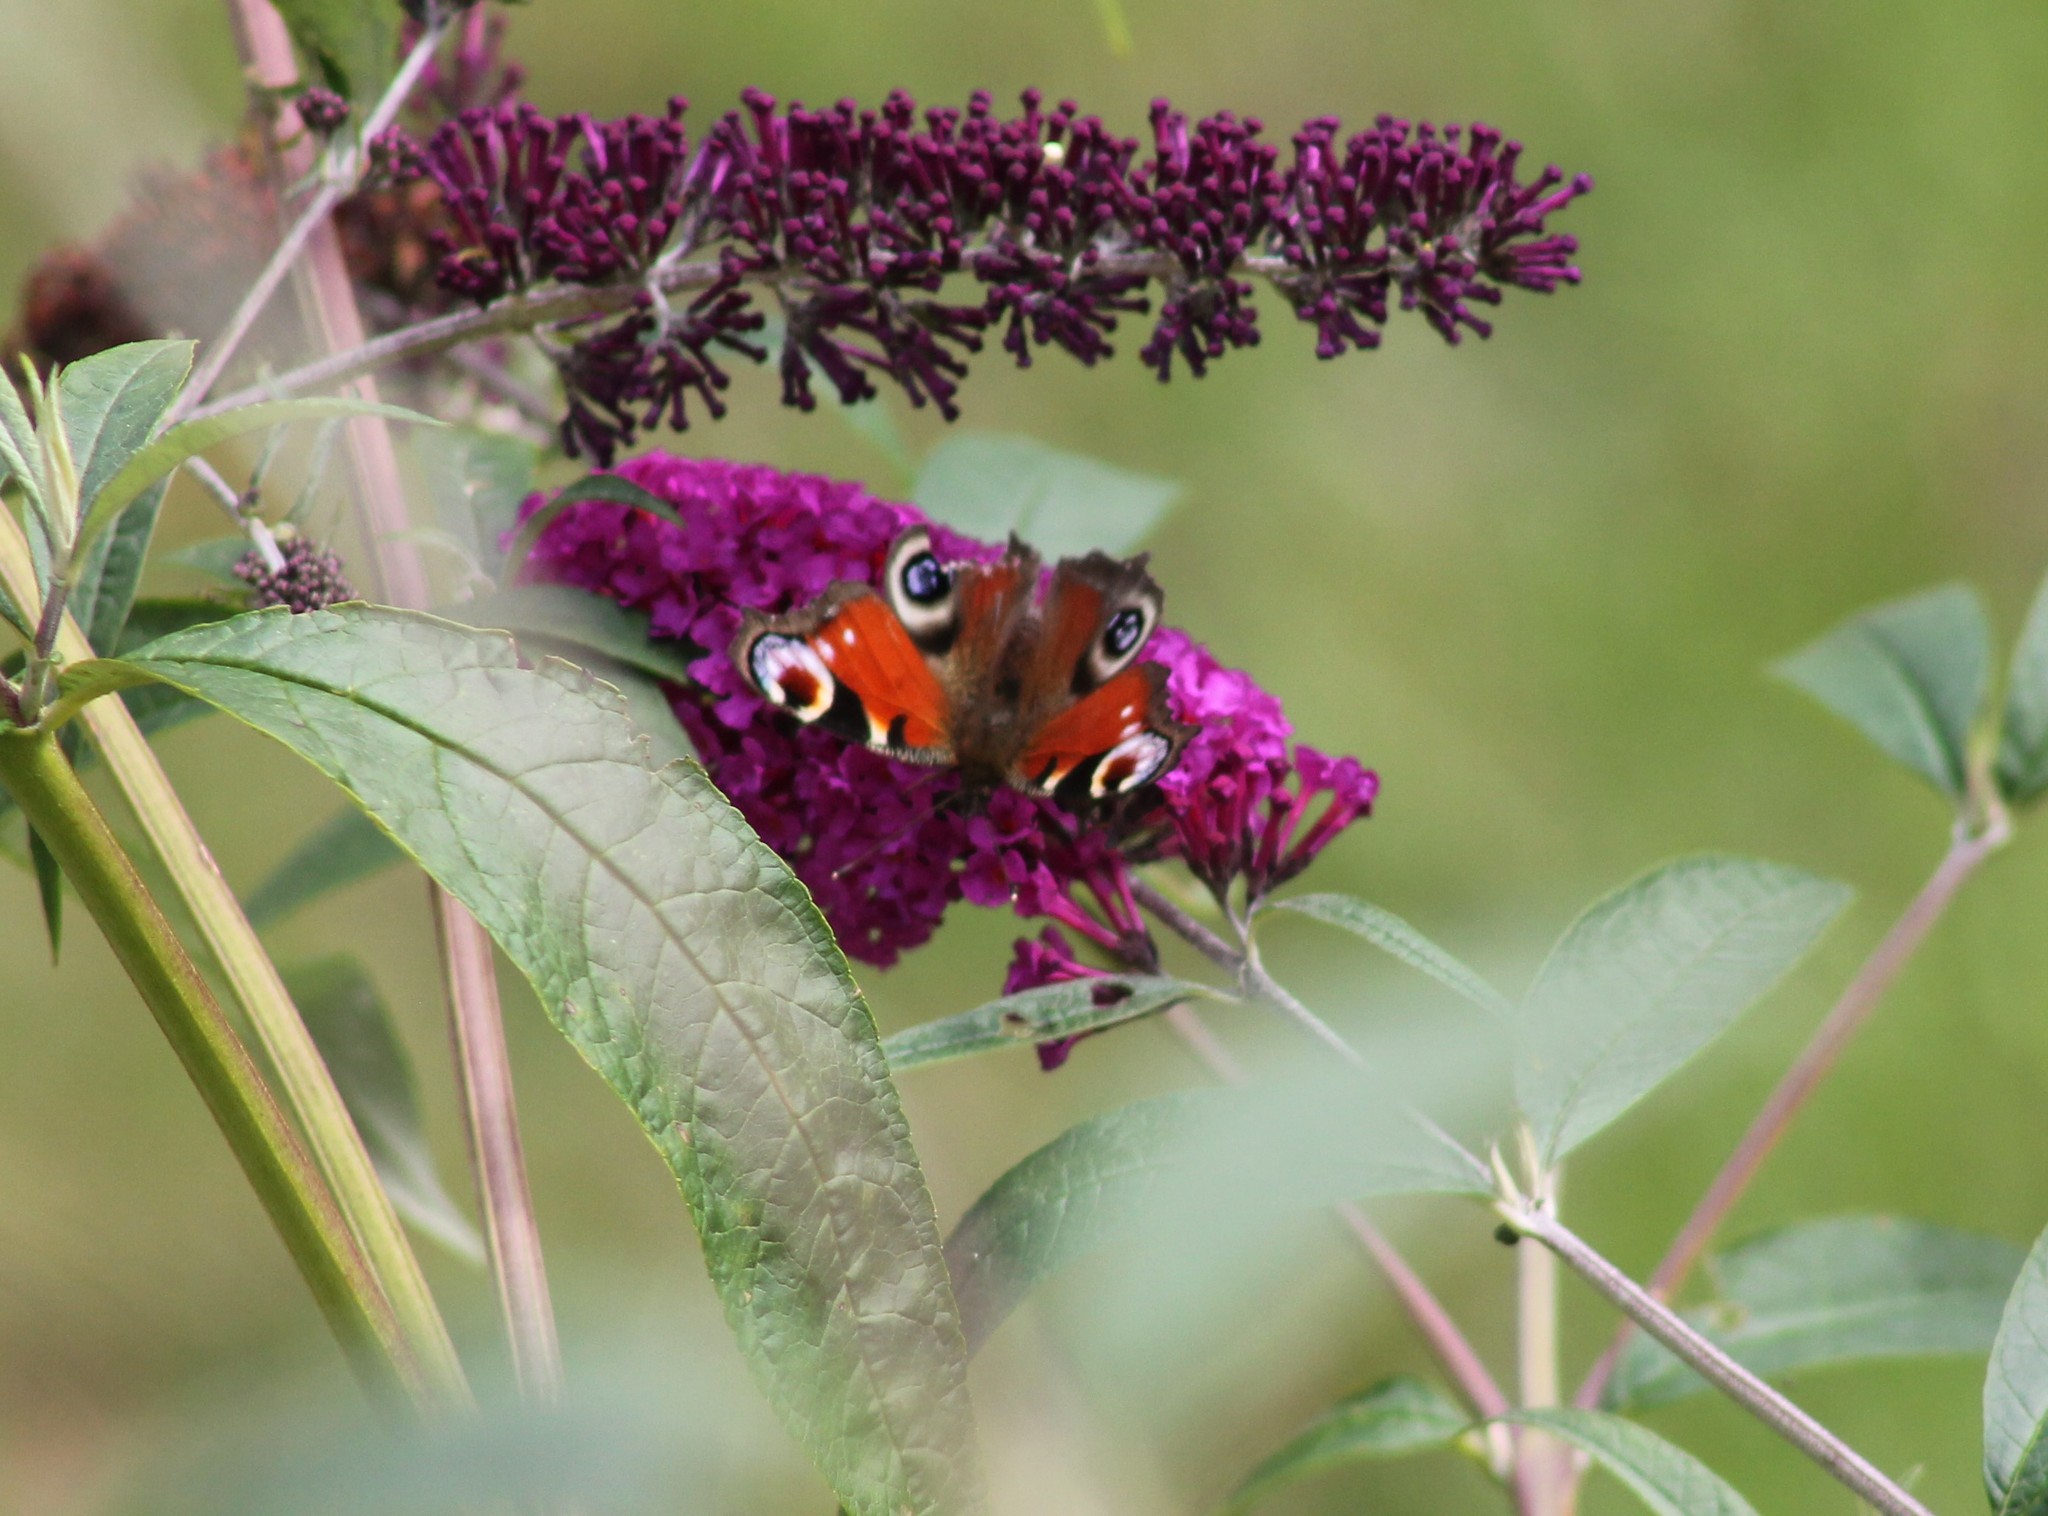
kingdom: Animalia
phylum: Arthropoda
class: Insecta
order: Lepidoptera
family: Nymphalidae
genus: Aglais
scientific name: Aglais io
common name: Peacock
